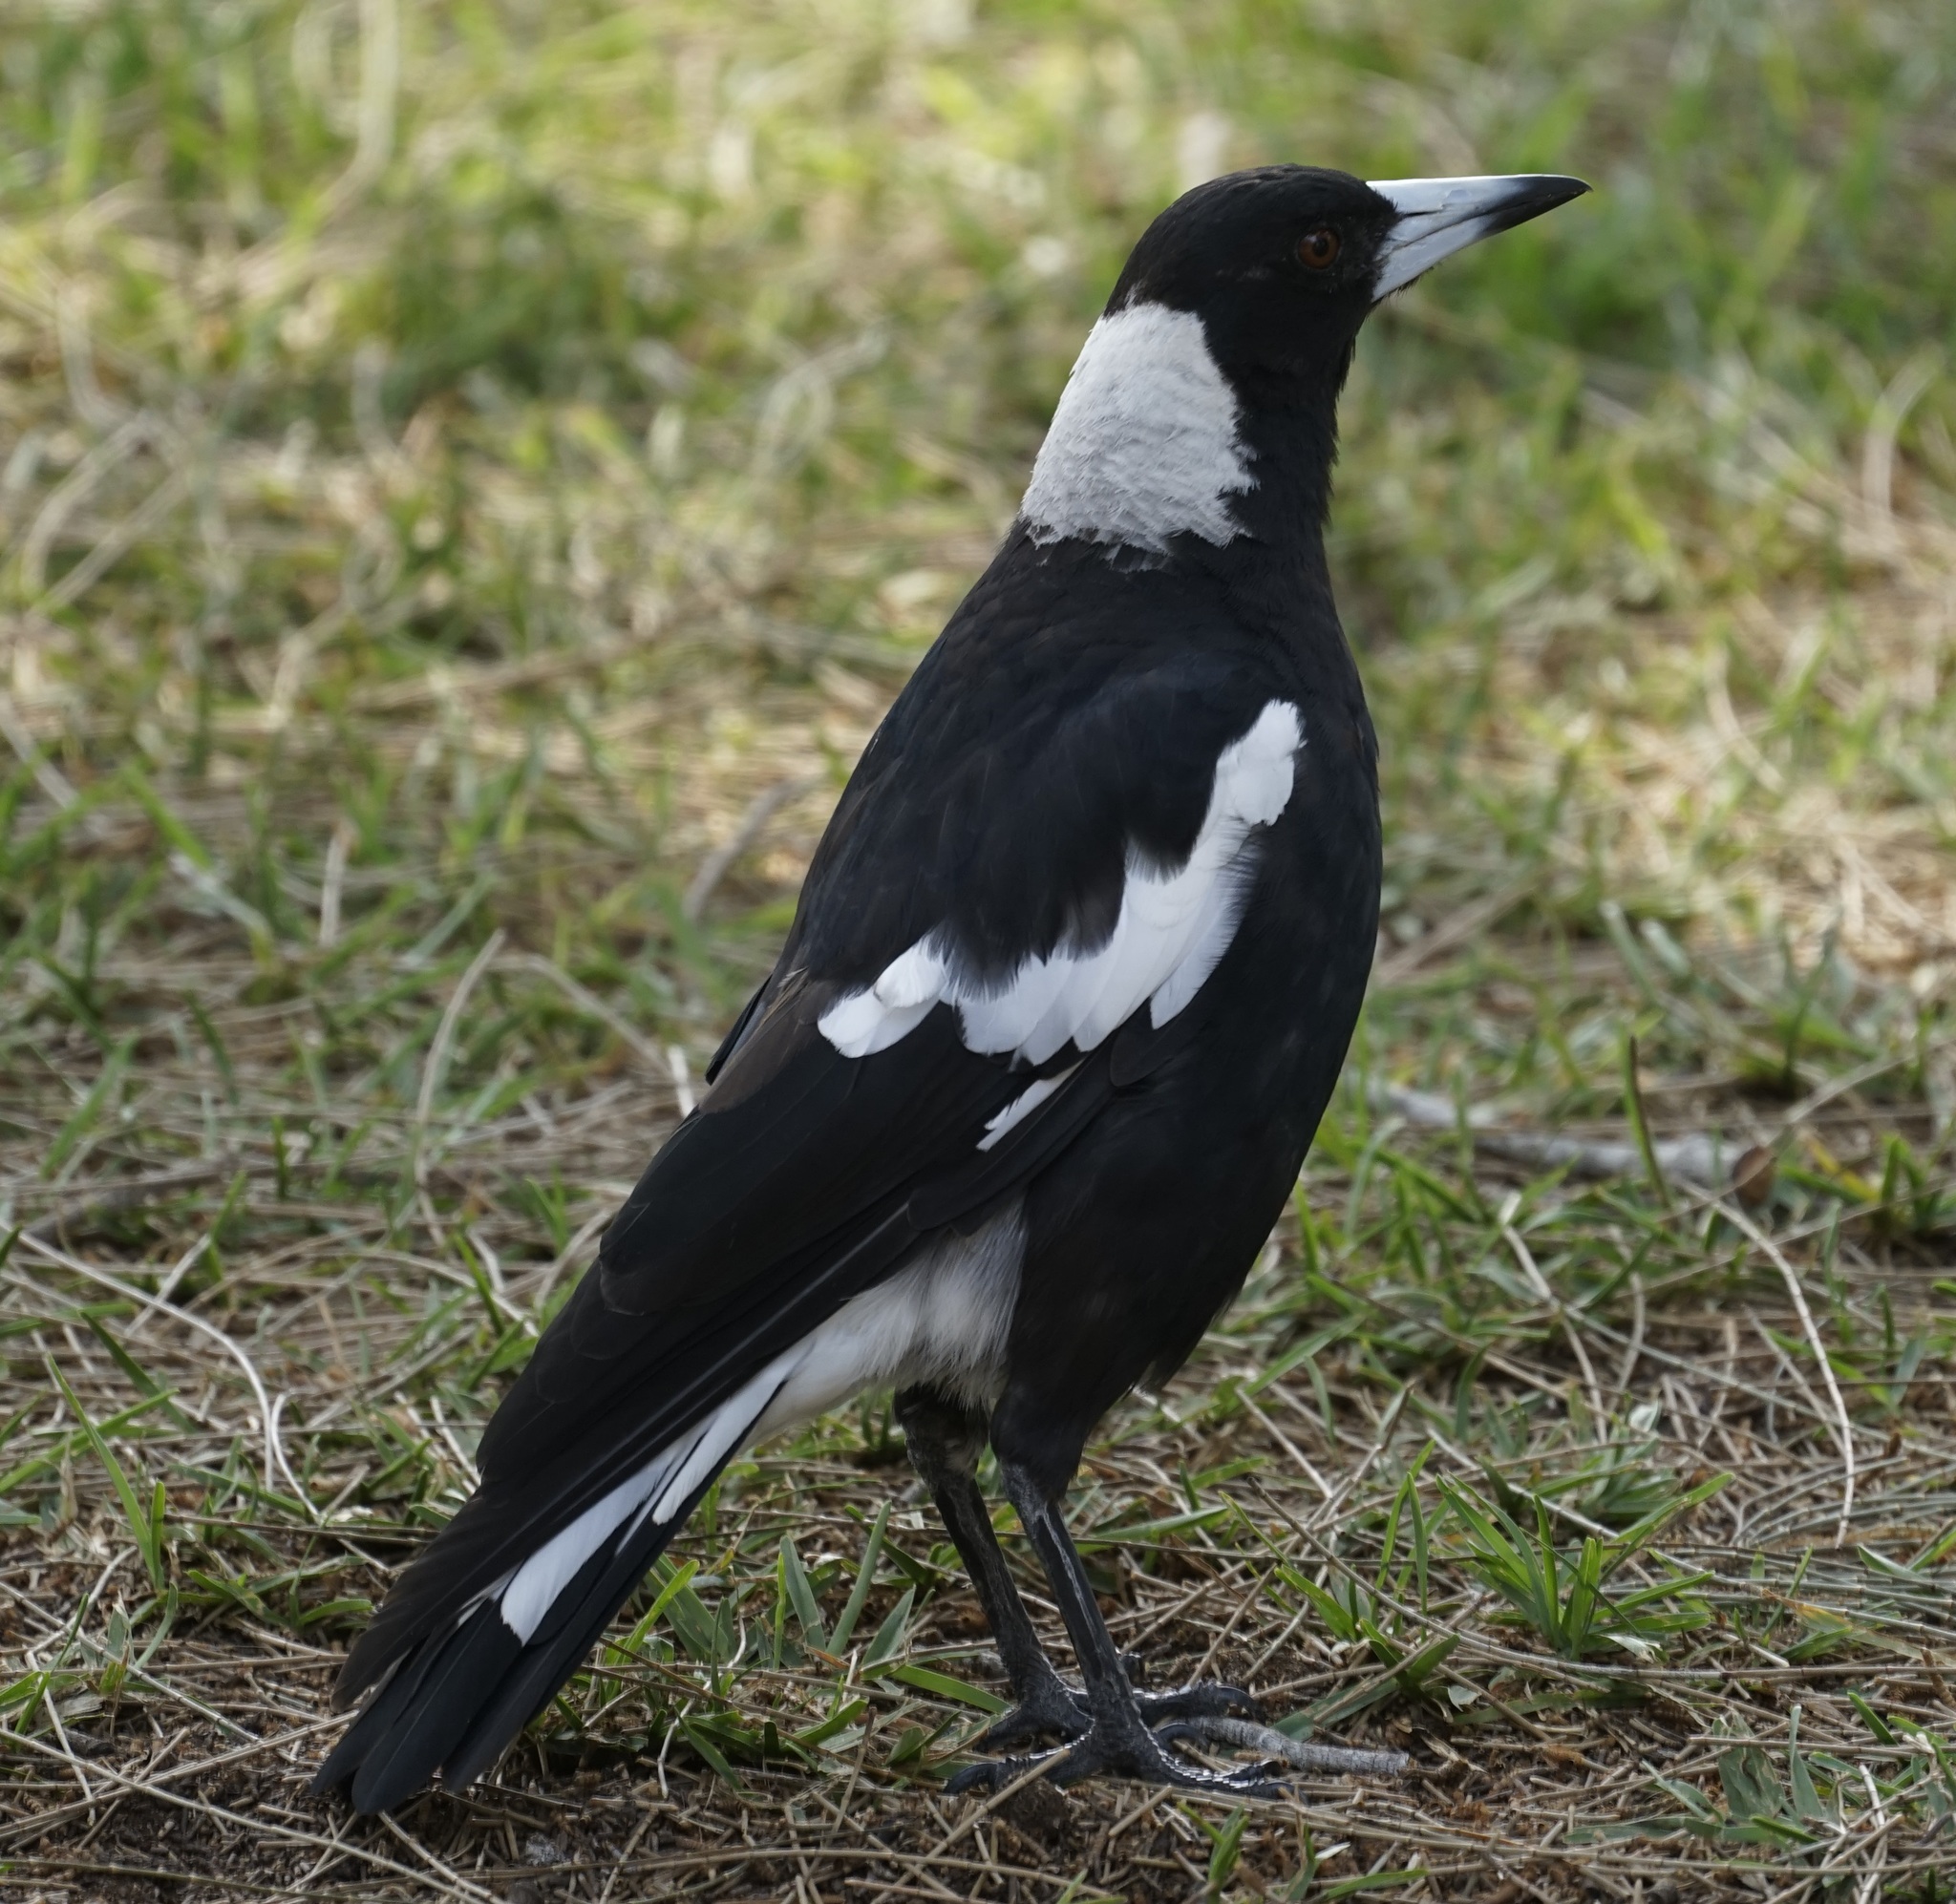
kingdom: Animalia
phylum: Chordata
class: Aves
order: Passeriformes
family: Cracticidae
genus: Gymnorhina
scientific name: Gymnorhina tibicen
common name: Australian magpie
